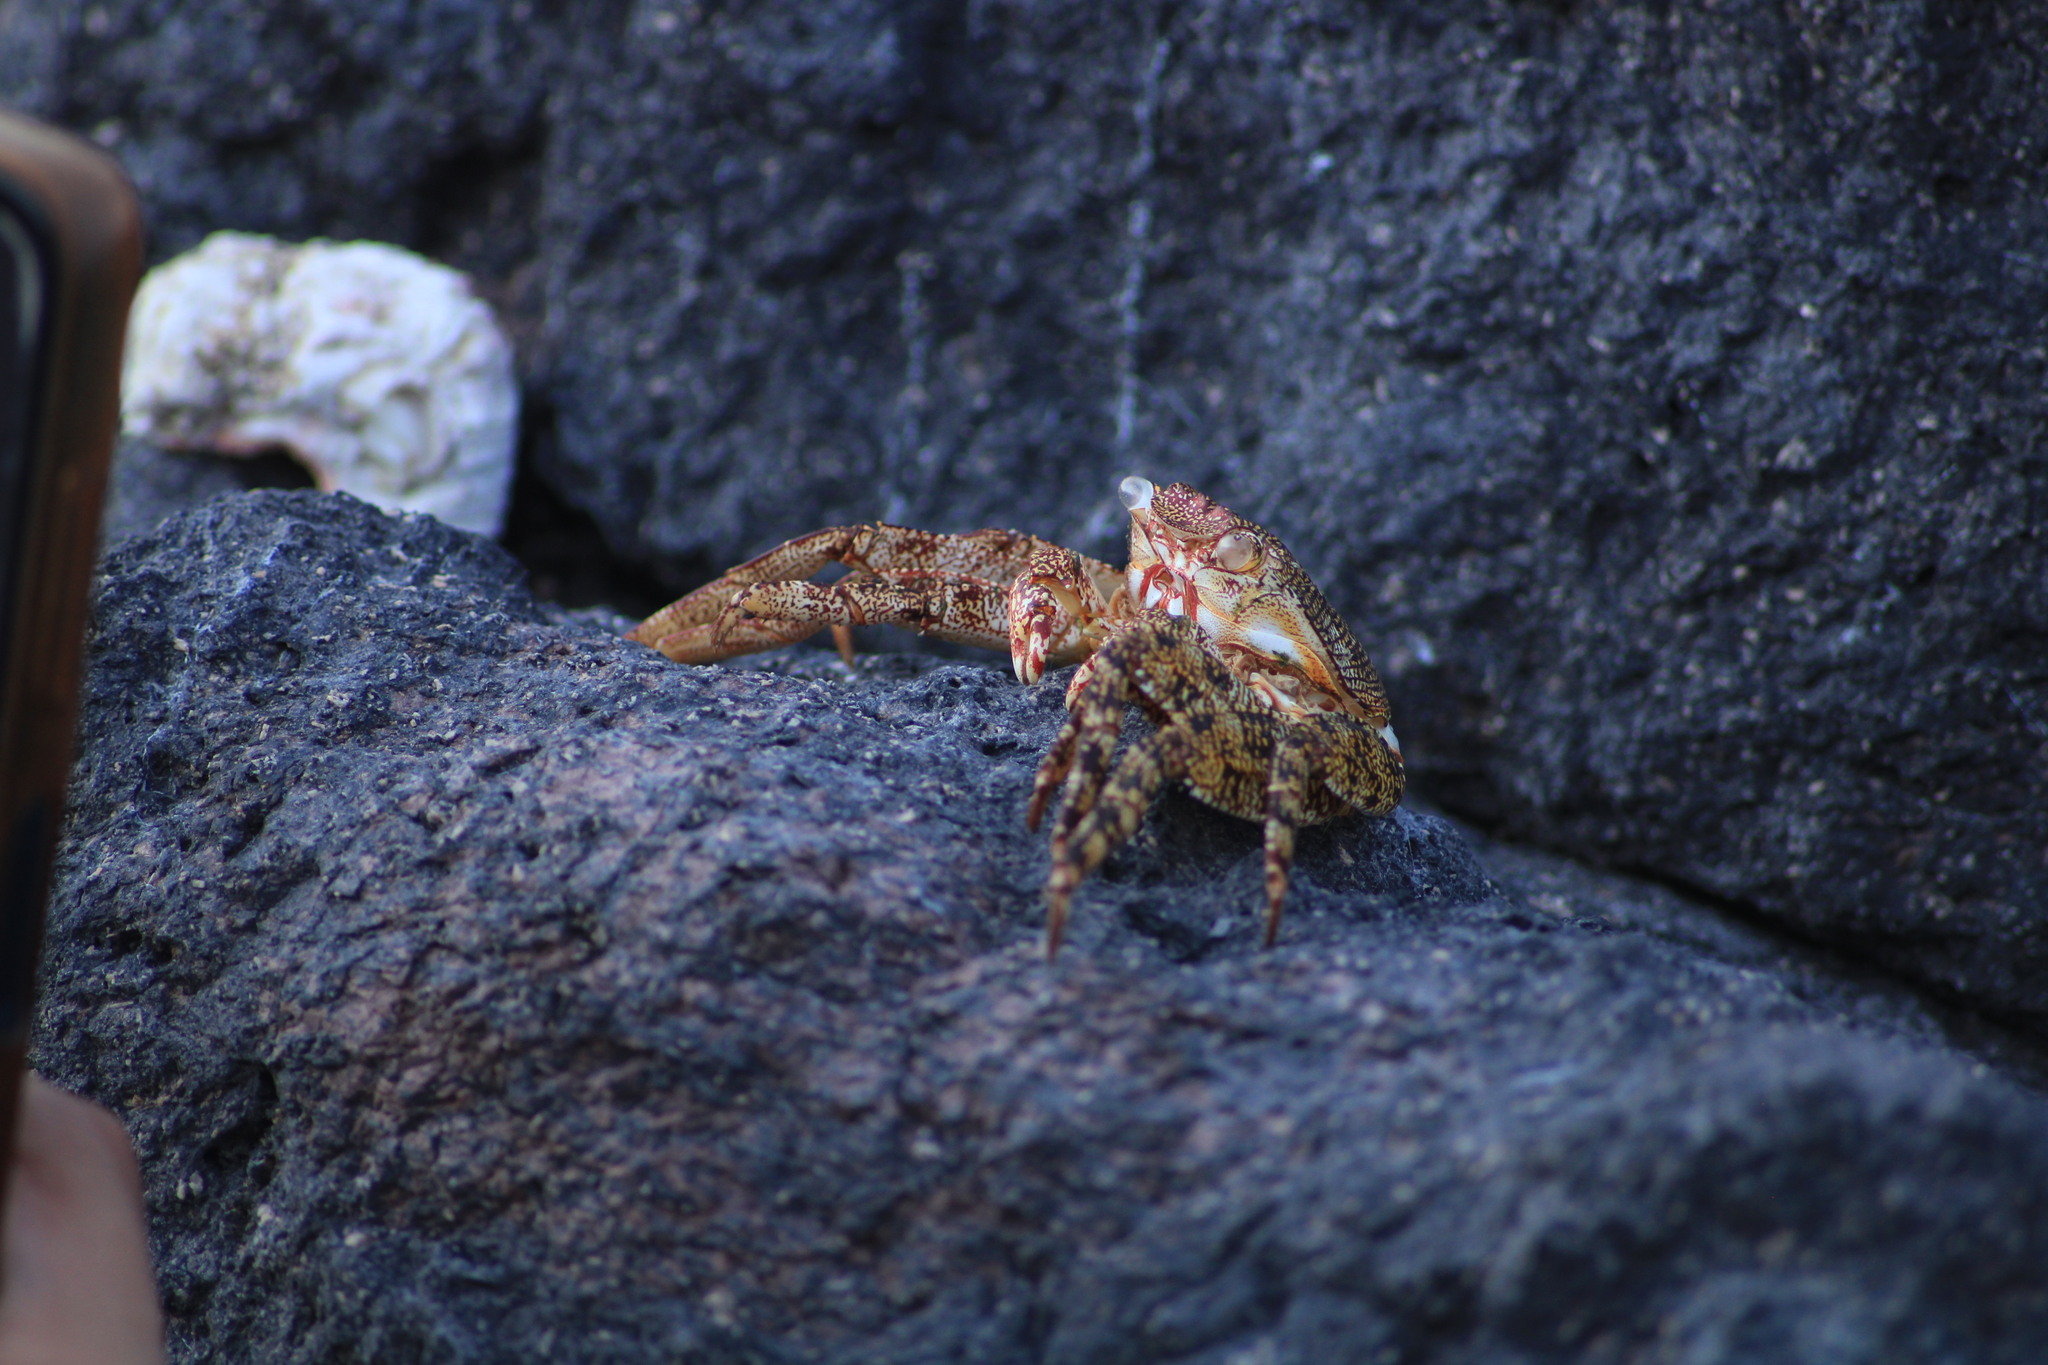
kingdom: Animalia
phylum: Arthropoda
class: Malacostraca
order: Decapoda
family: Grapsidae
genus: Grapsus
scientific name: Grapsus grapsus
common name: Sally lightfoot
